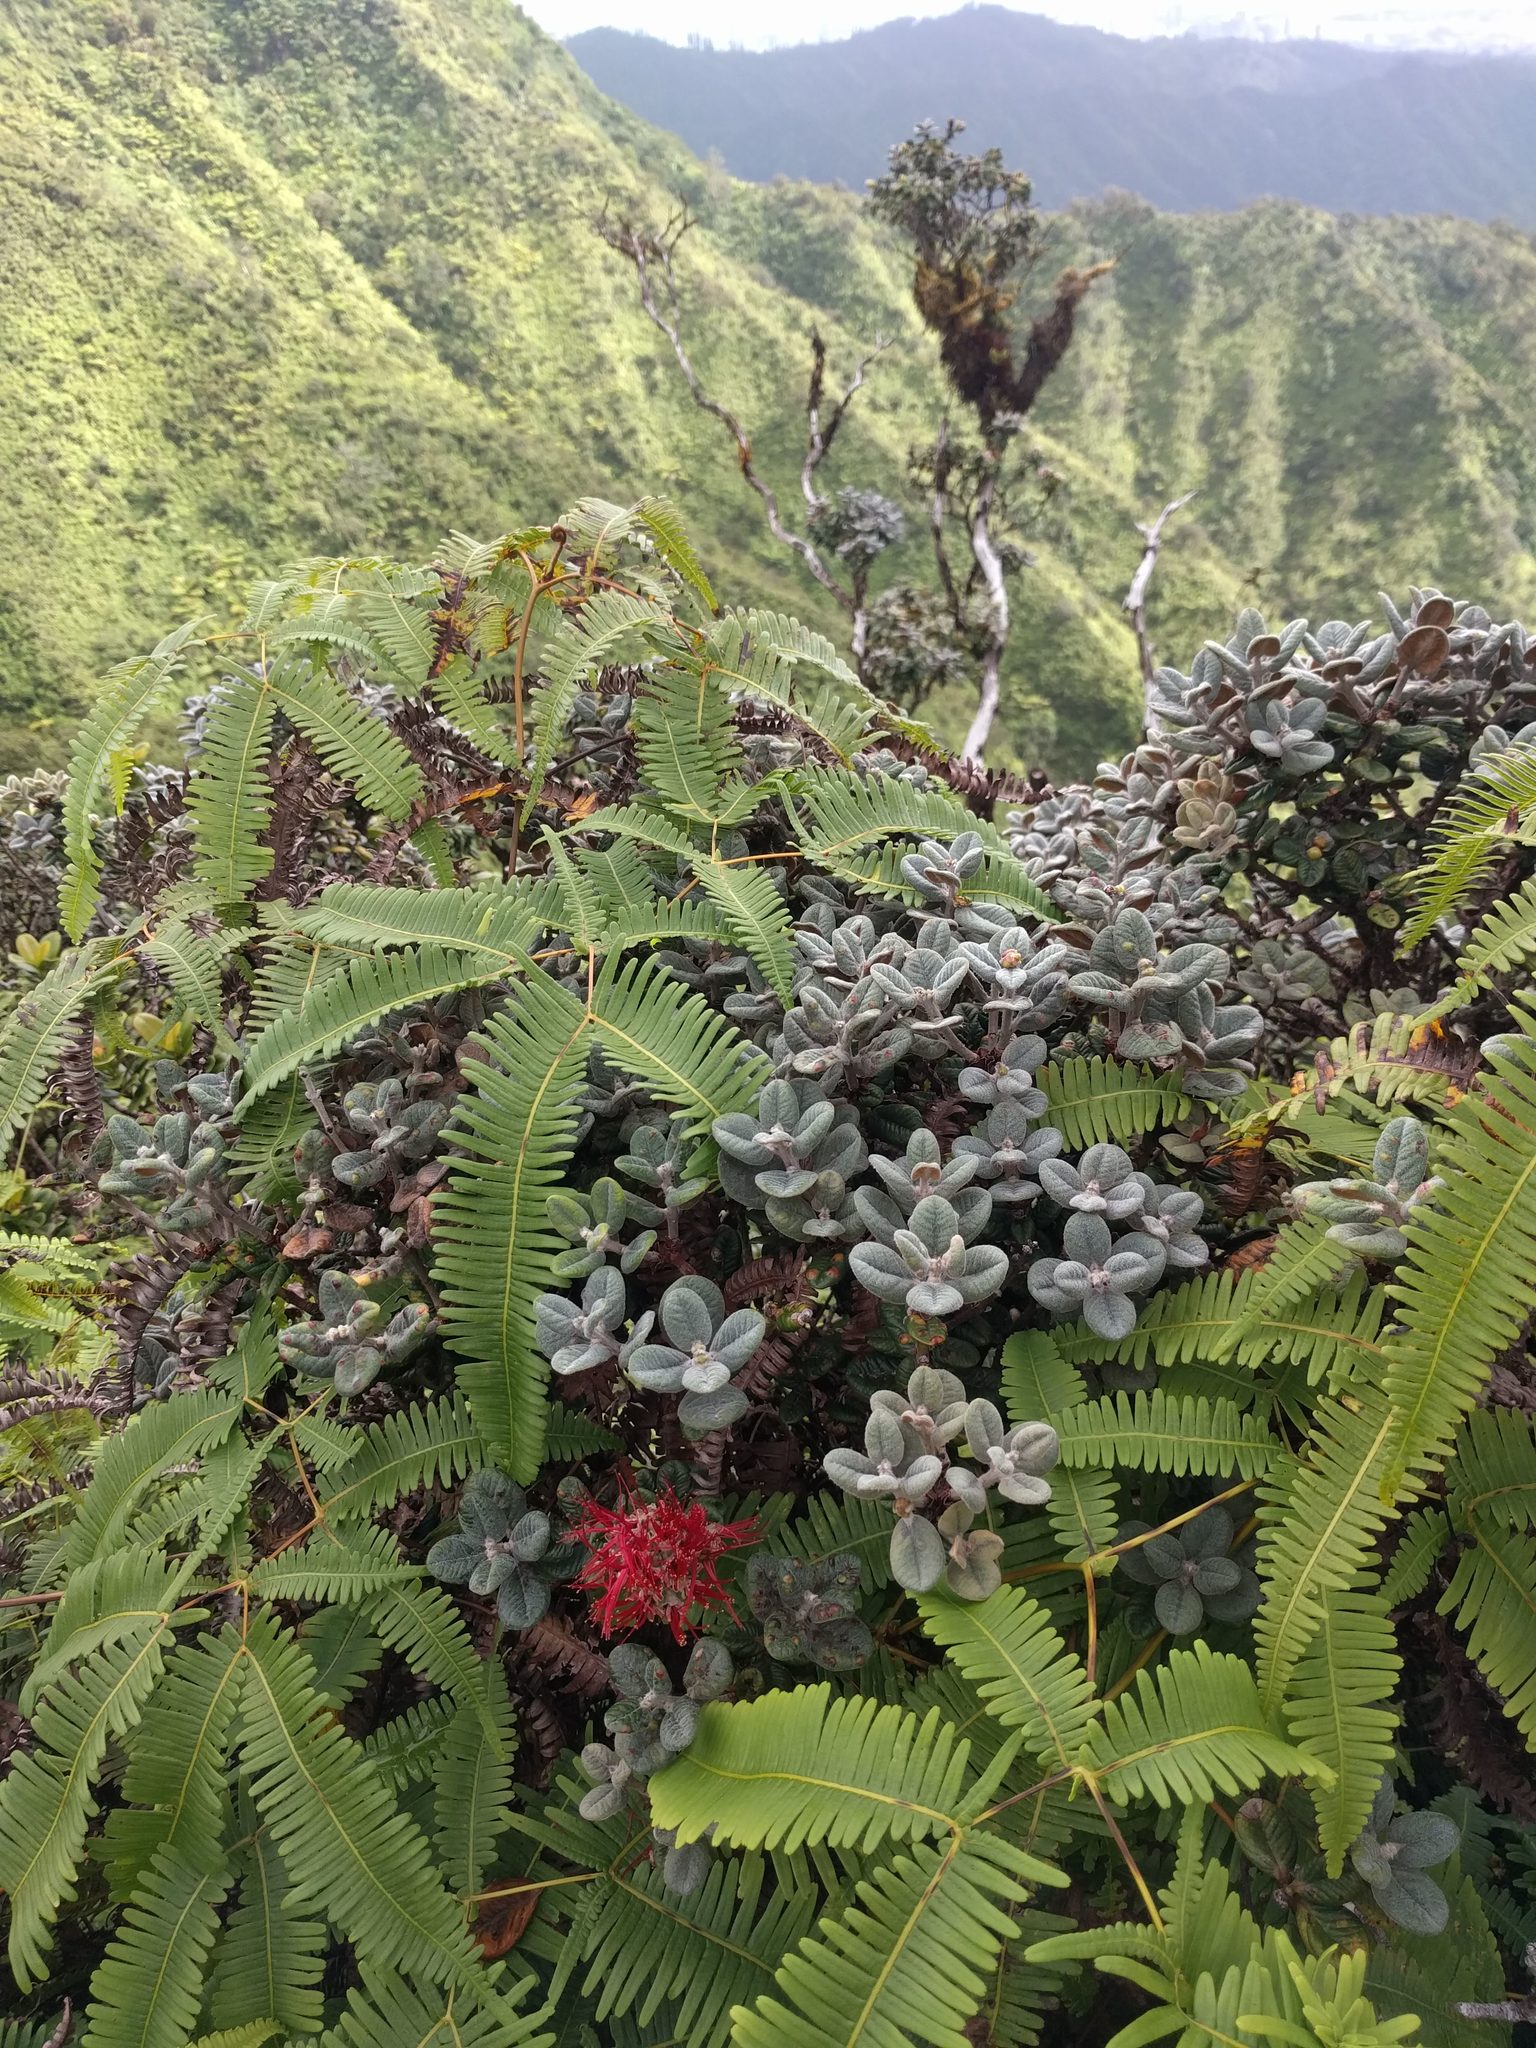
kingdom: Plantae
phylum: Tracheophyta
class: Magnoliopsida
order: Myrtales
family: Myrtaceae
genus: Metrosideros
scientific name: Metrosideros rugosa
